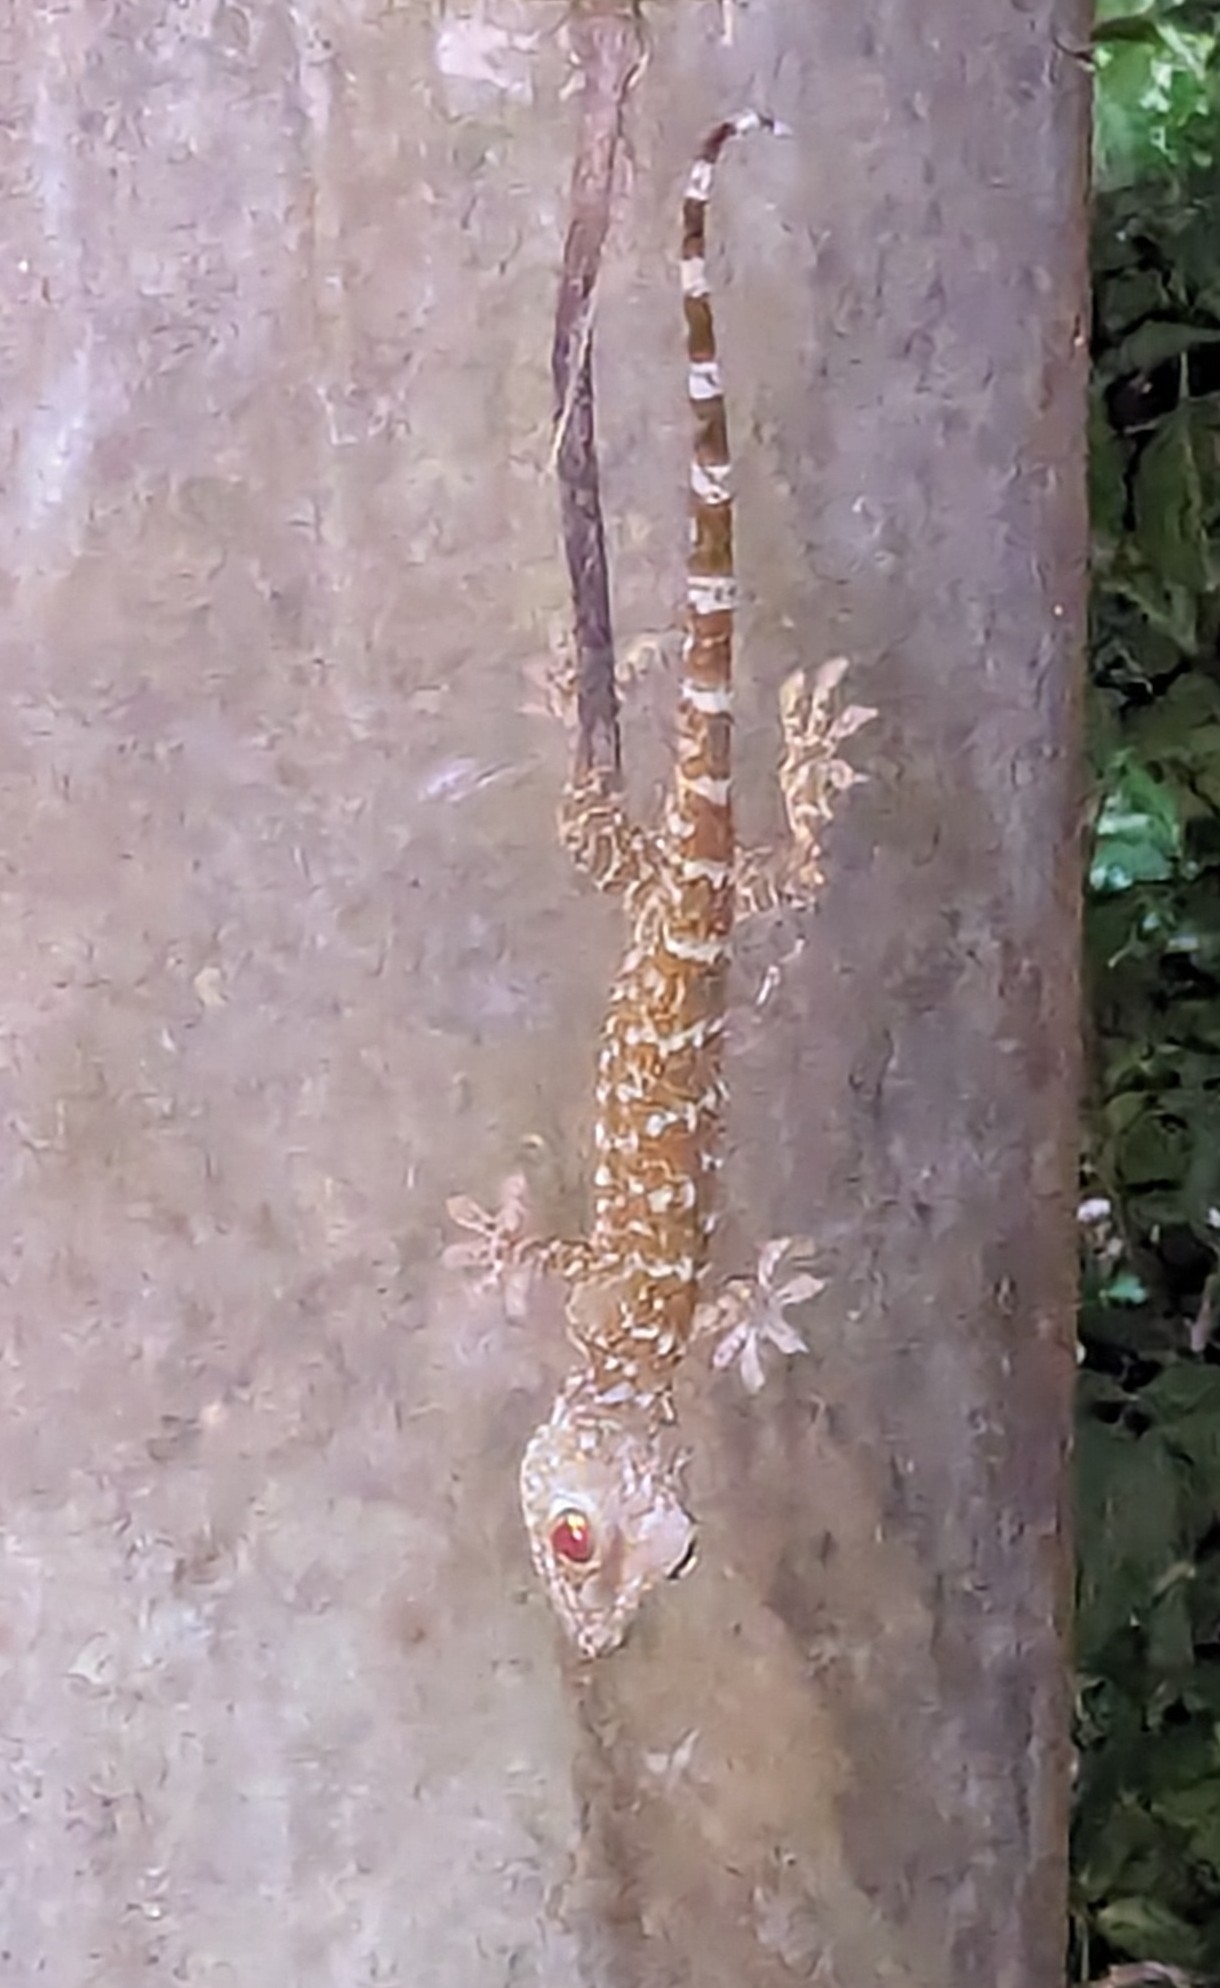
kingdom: Animalia
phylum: Chordata
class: Squamata
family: Gekkonidae
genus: Gekko
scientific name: Gekko gecko
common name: Tokay gecko
